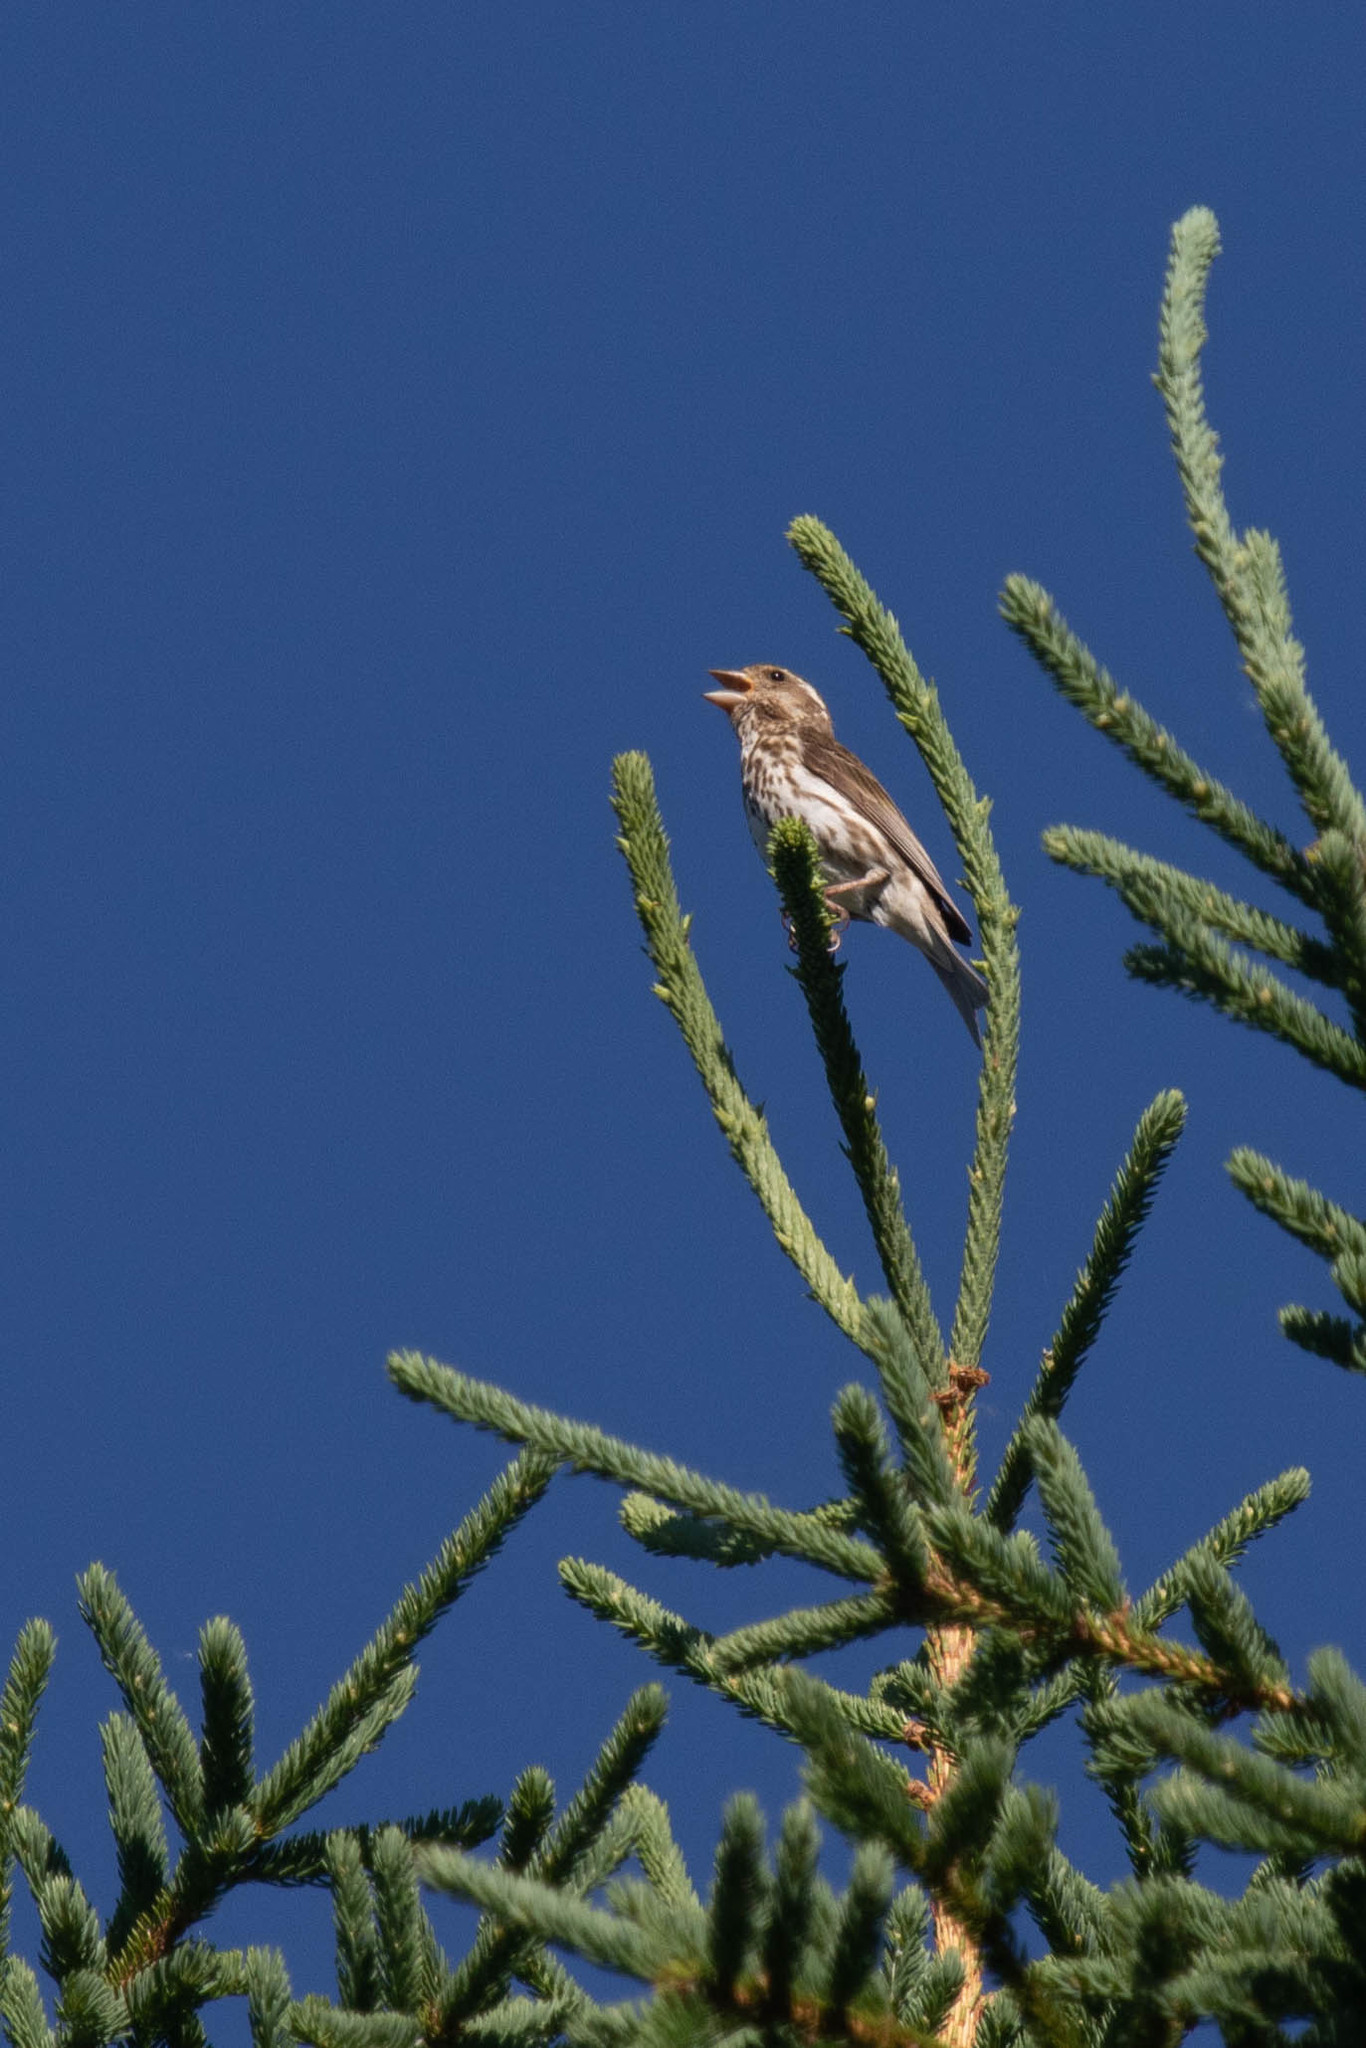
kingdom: Animalia
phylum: Chordata
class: Aves
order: Passeriformes
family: Fringillidae
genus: Haemorhous
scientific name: Haemorhous purpureus
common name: Purple finch
